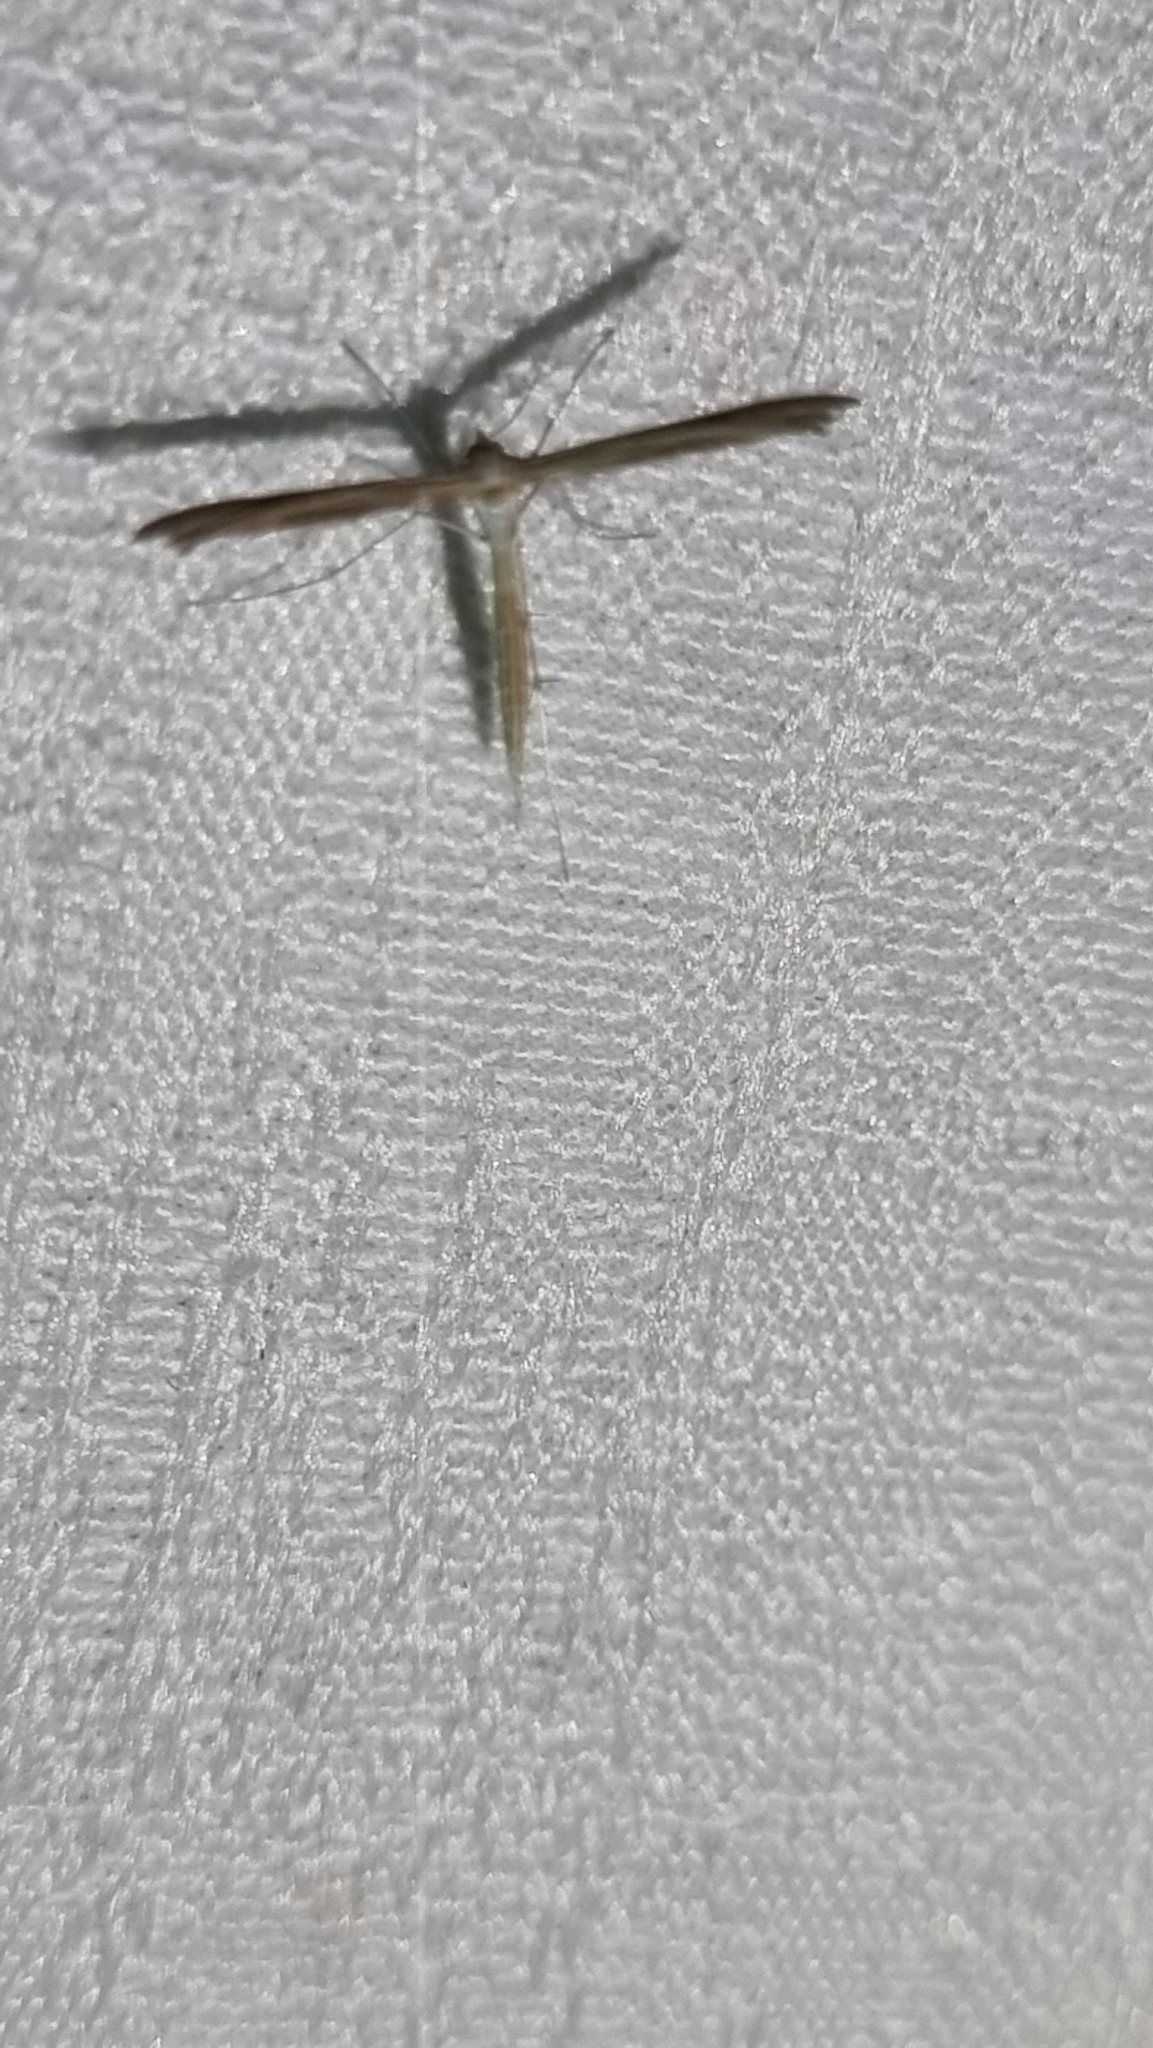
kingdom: Animalia
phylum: Arthropoda
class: Insecta
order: Lepidoptera
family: Pterophoridae
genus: Stenoptilia
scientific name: Stenoptilia zophodactylus
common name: Dowdy plume
